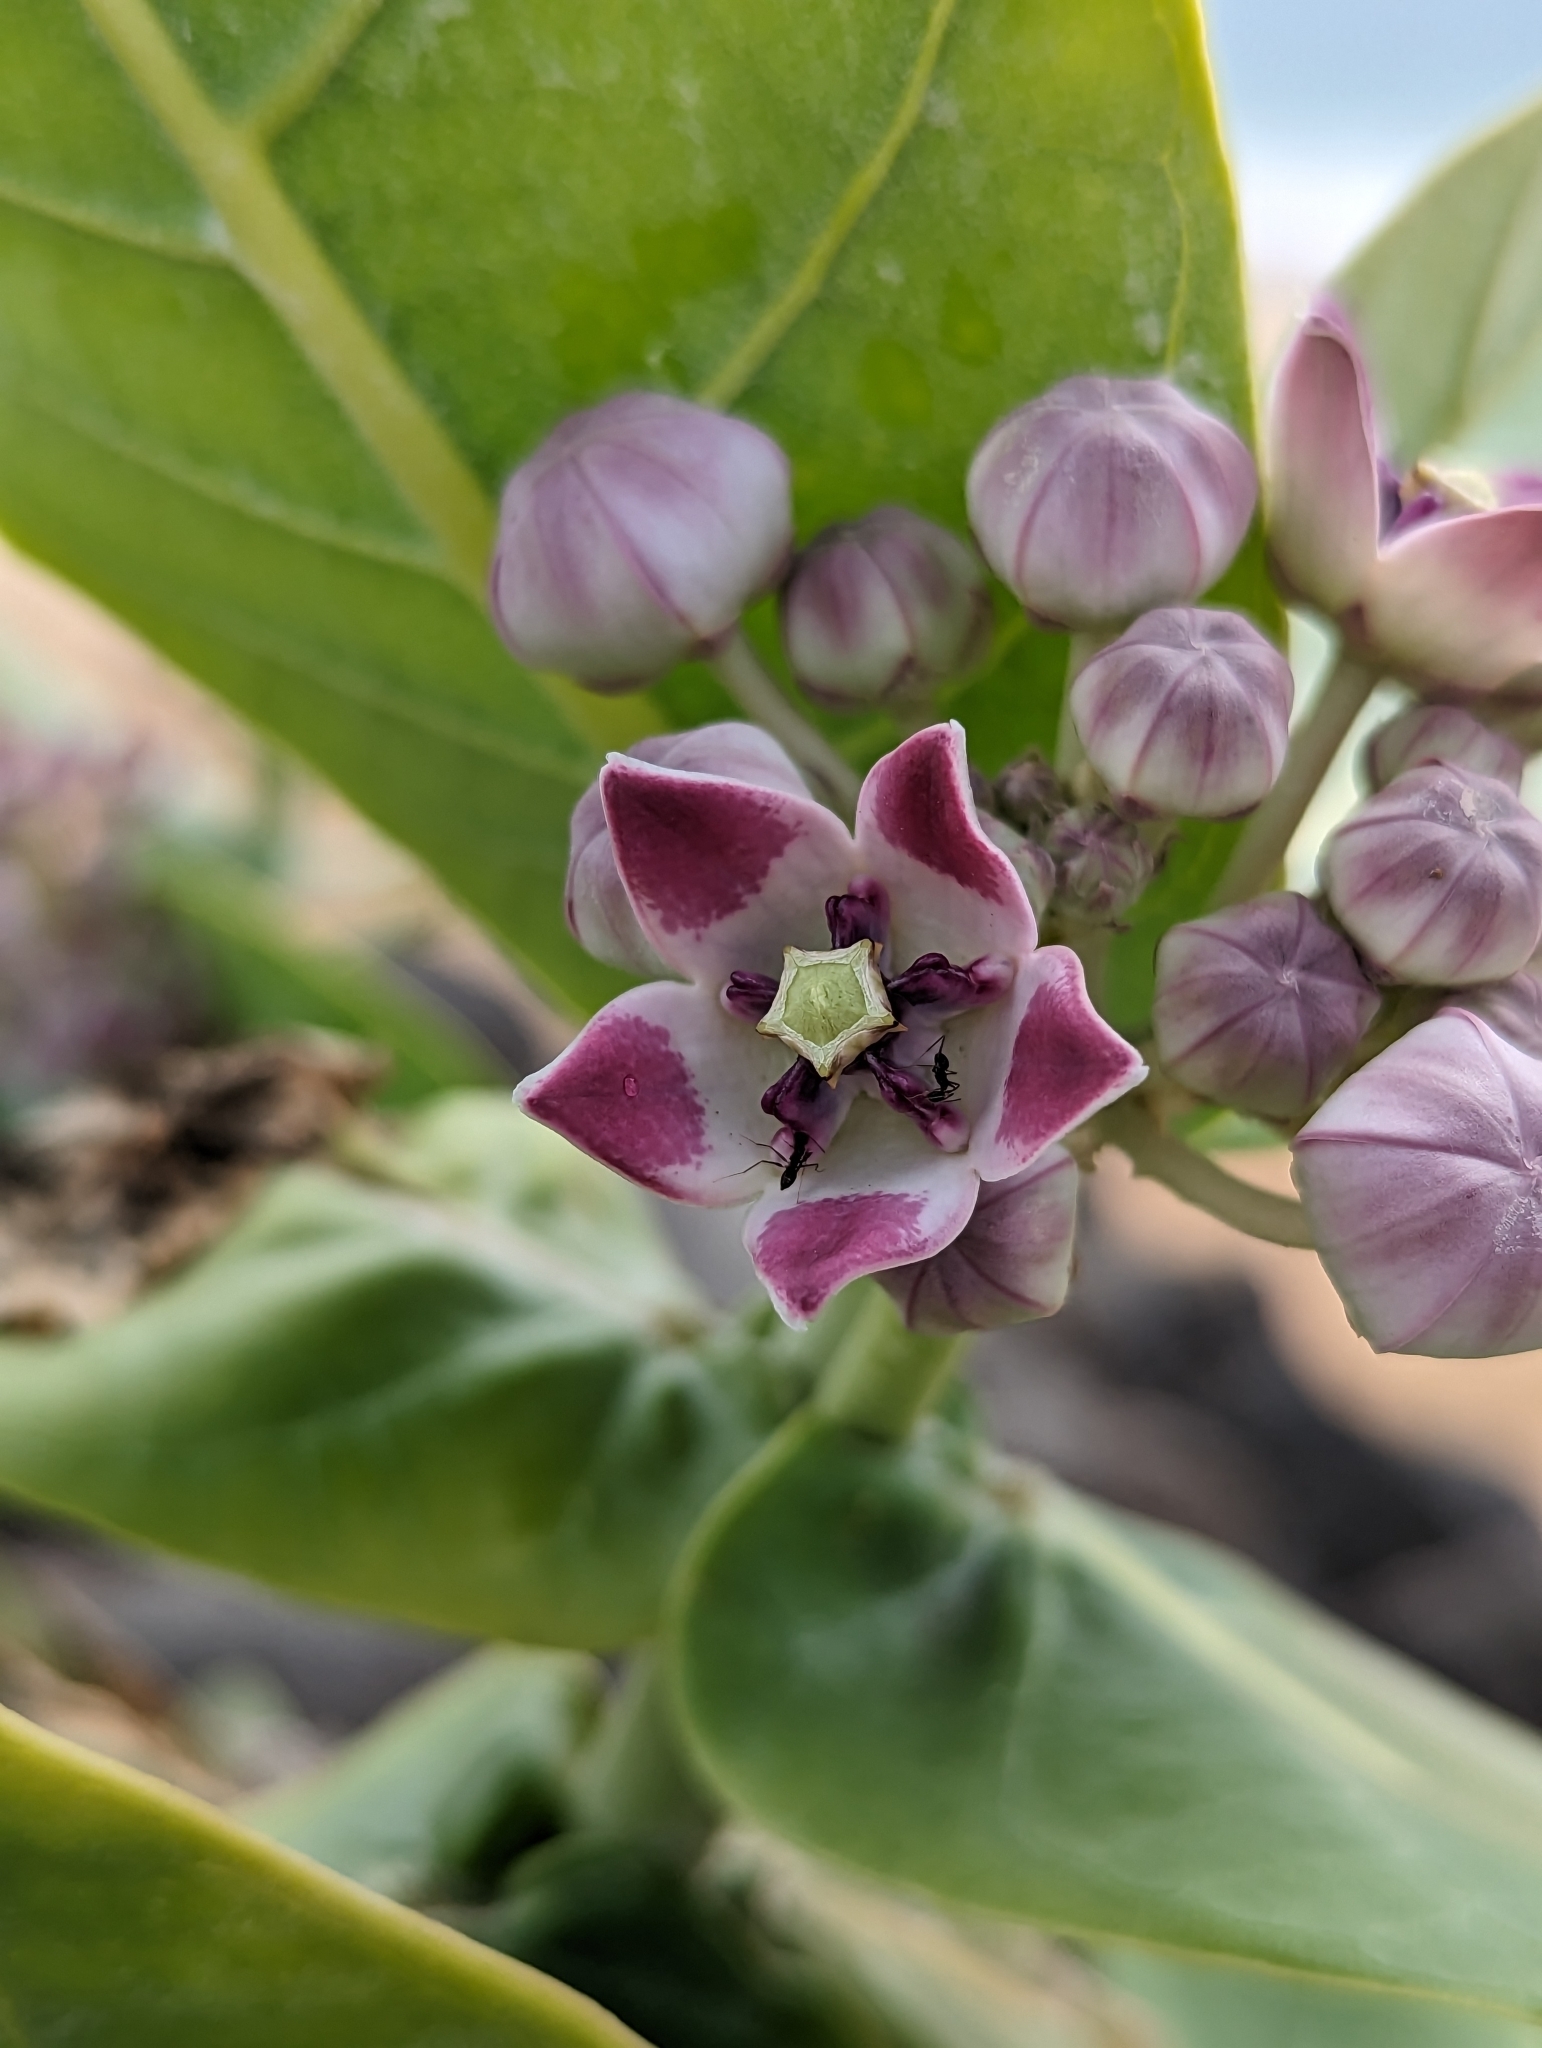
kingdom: Plantae
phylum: Tracheophyta
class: Magnoliopsida
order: Gentianales
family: Apocynaceae
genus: Calotropis
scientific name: Calotropis procera
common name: Roostertree
